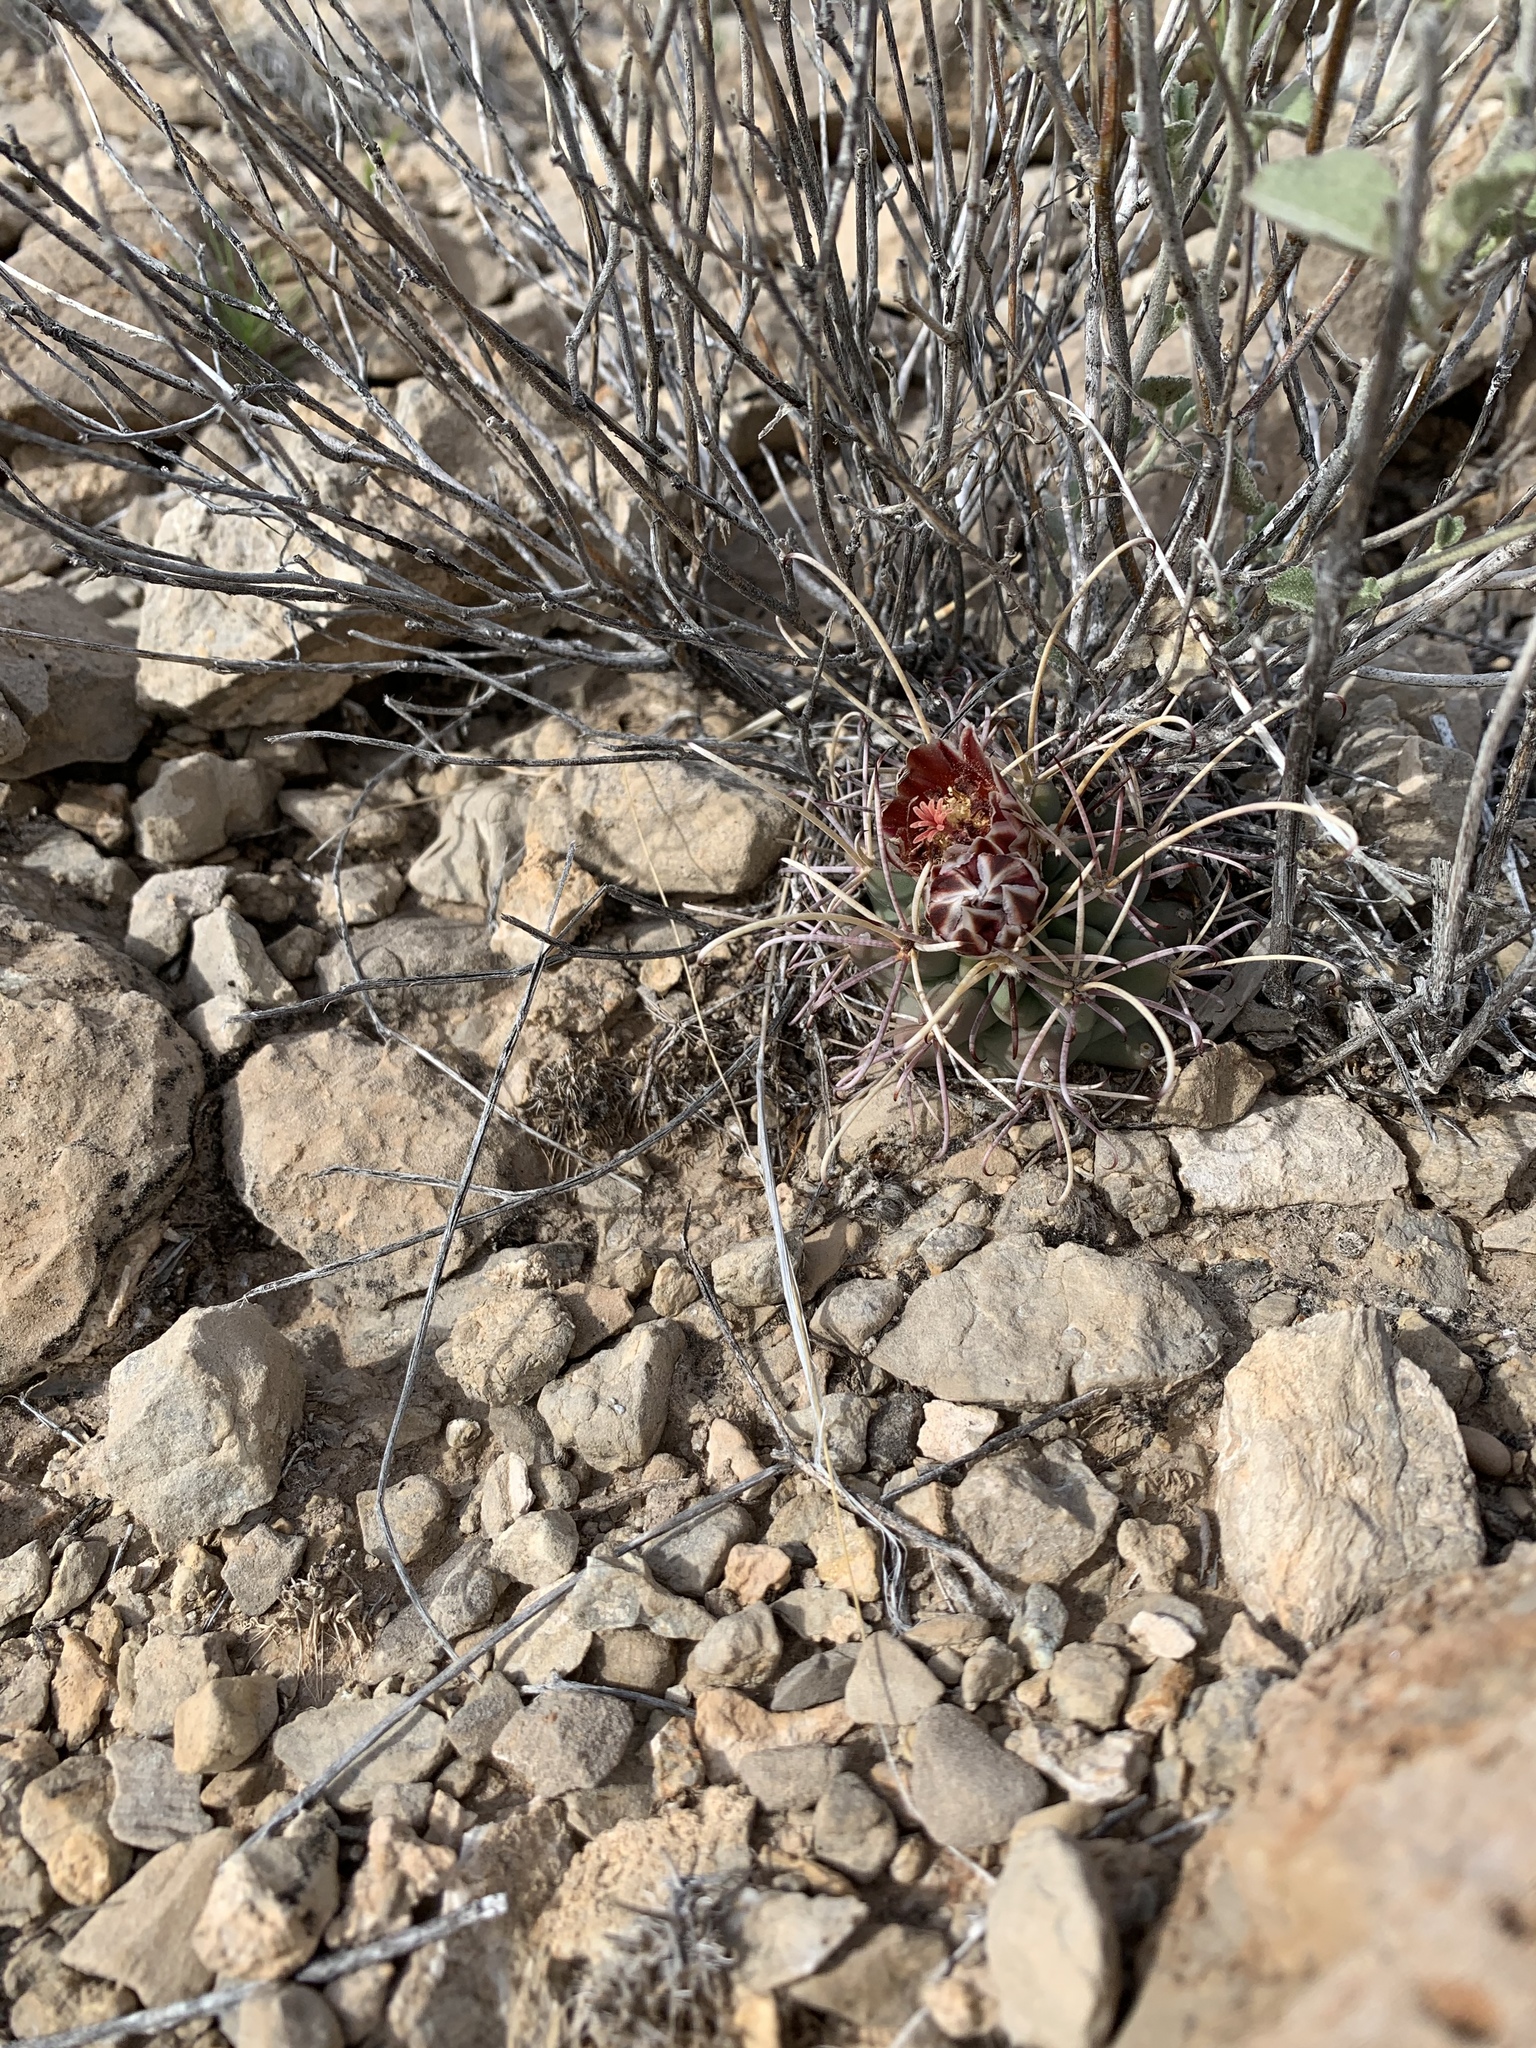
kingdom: Plantae
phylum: Tracheophyta
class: Magnoliopsida
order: Caryophyllales
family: Cactaceae
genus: Ferocactus
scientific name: Ferocactus uncinatus
